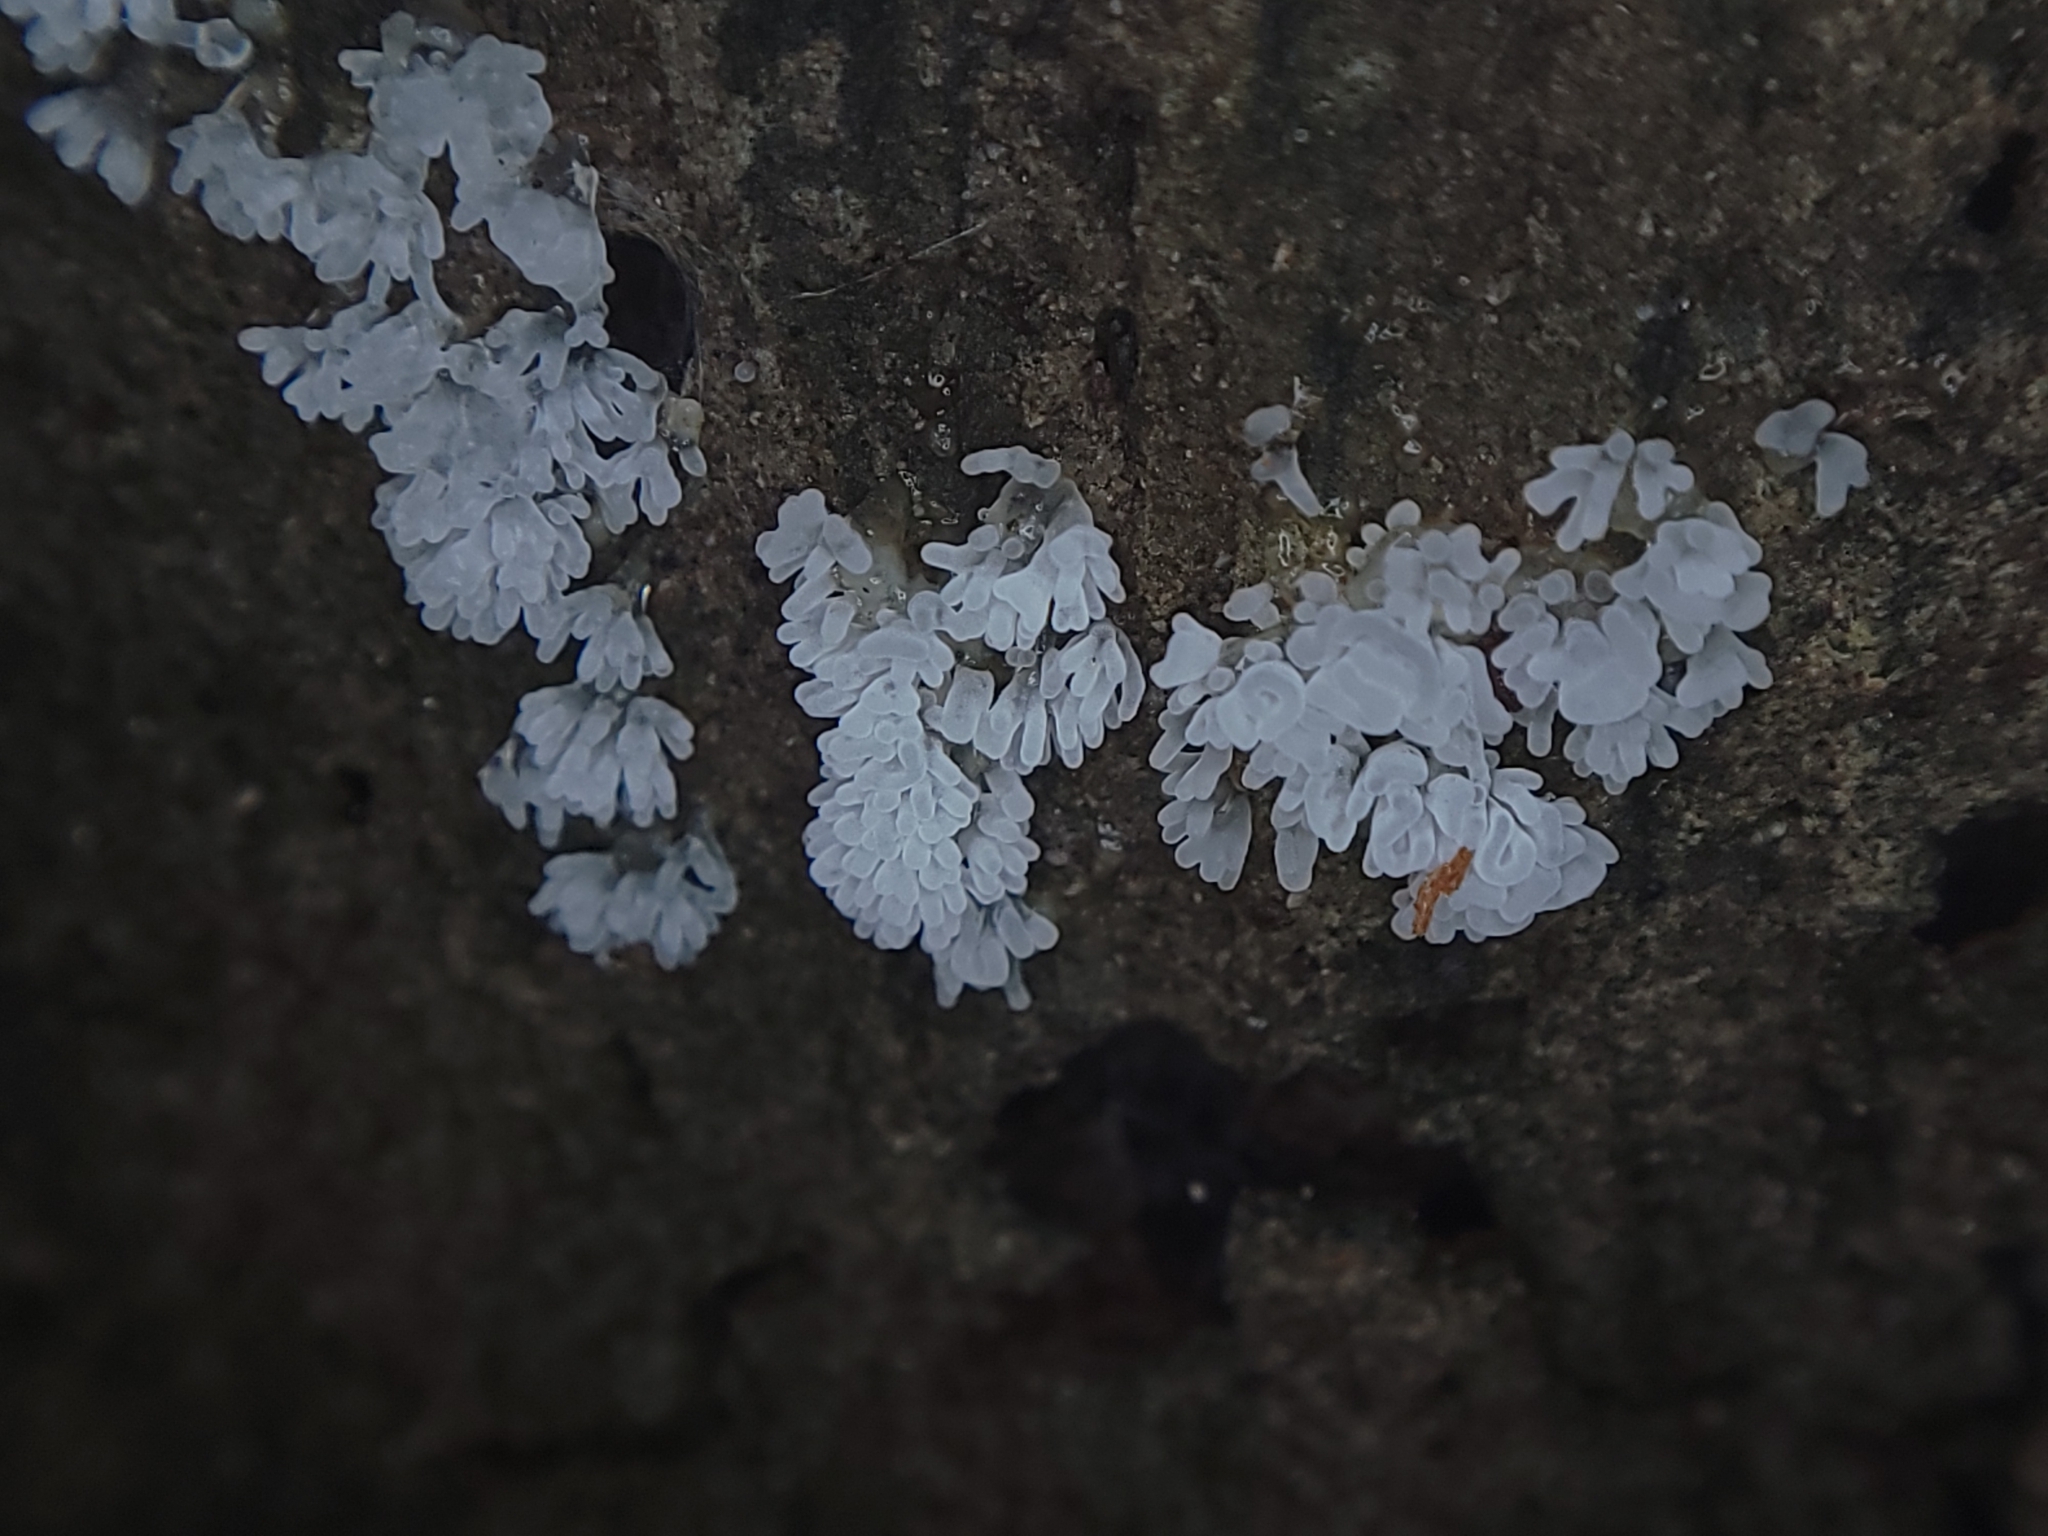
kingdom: Protozoa
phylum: Mycetozoa
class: Protosteliomycetes
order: Ceratiomyxales
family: Ceratiomyxaceae
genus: Ceratiomyxa
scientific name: Ceratiomyxa fruticulosa
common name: Honeycomb coral slime mold
